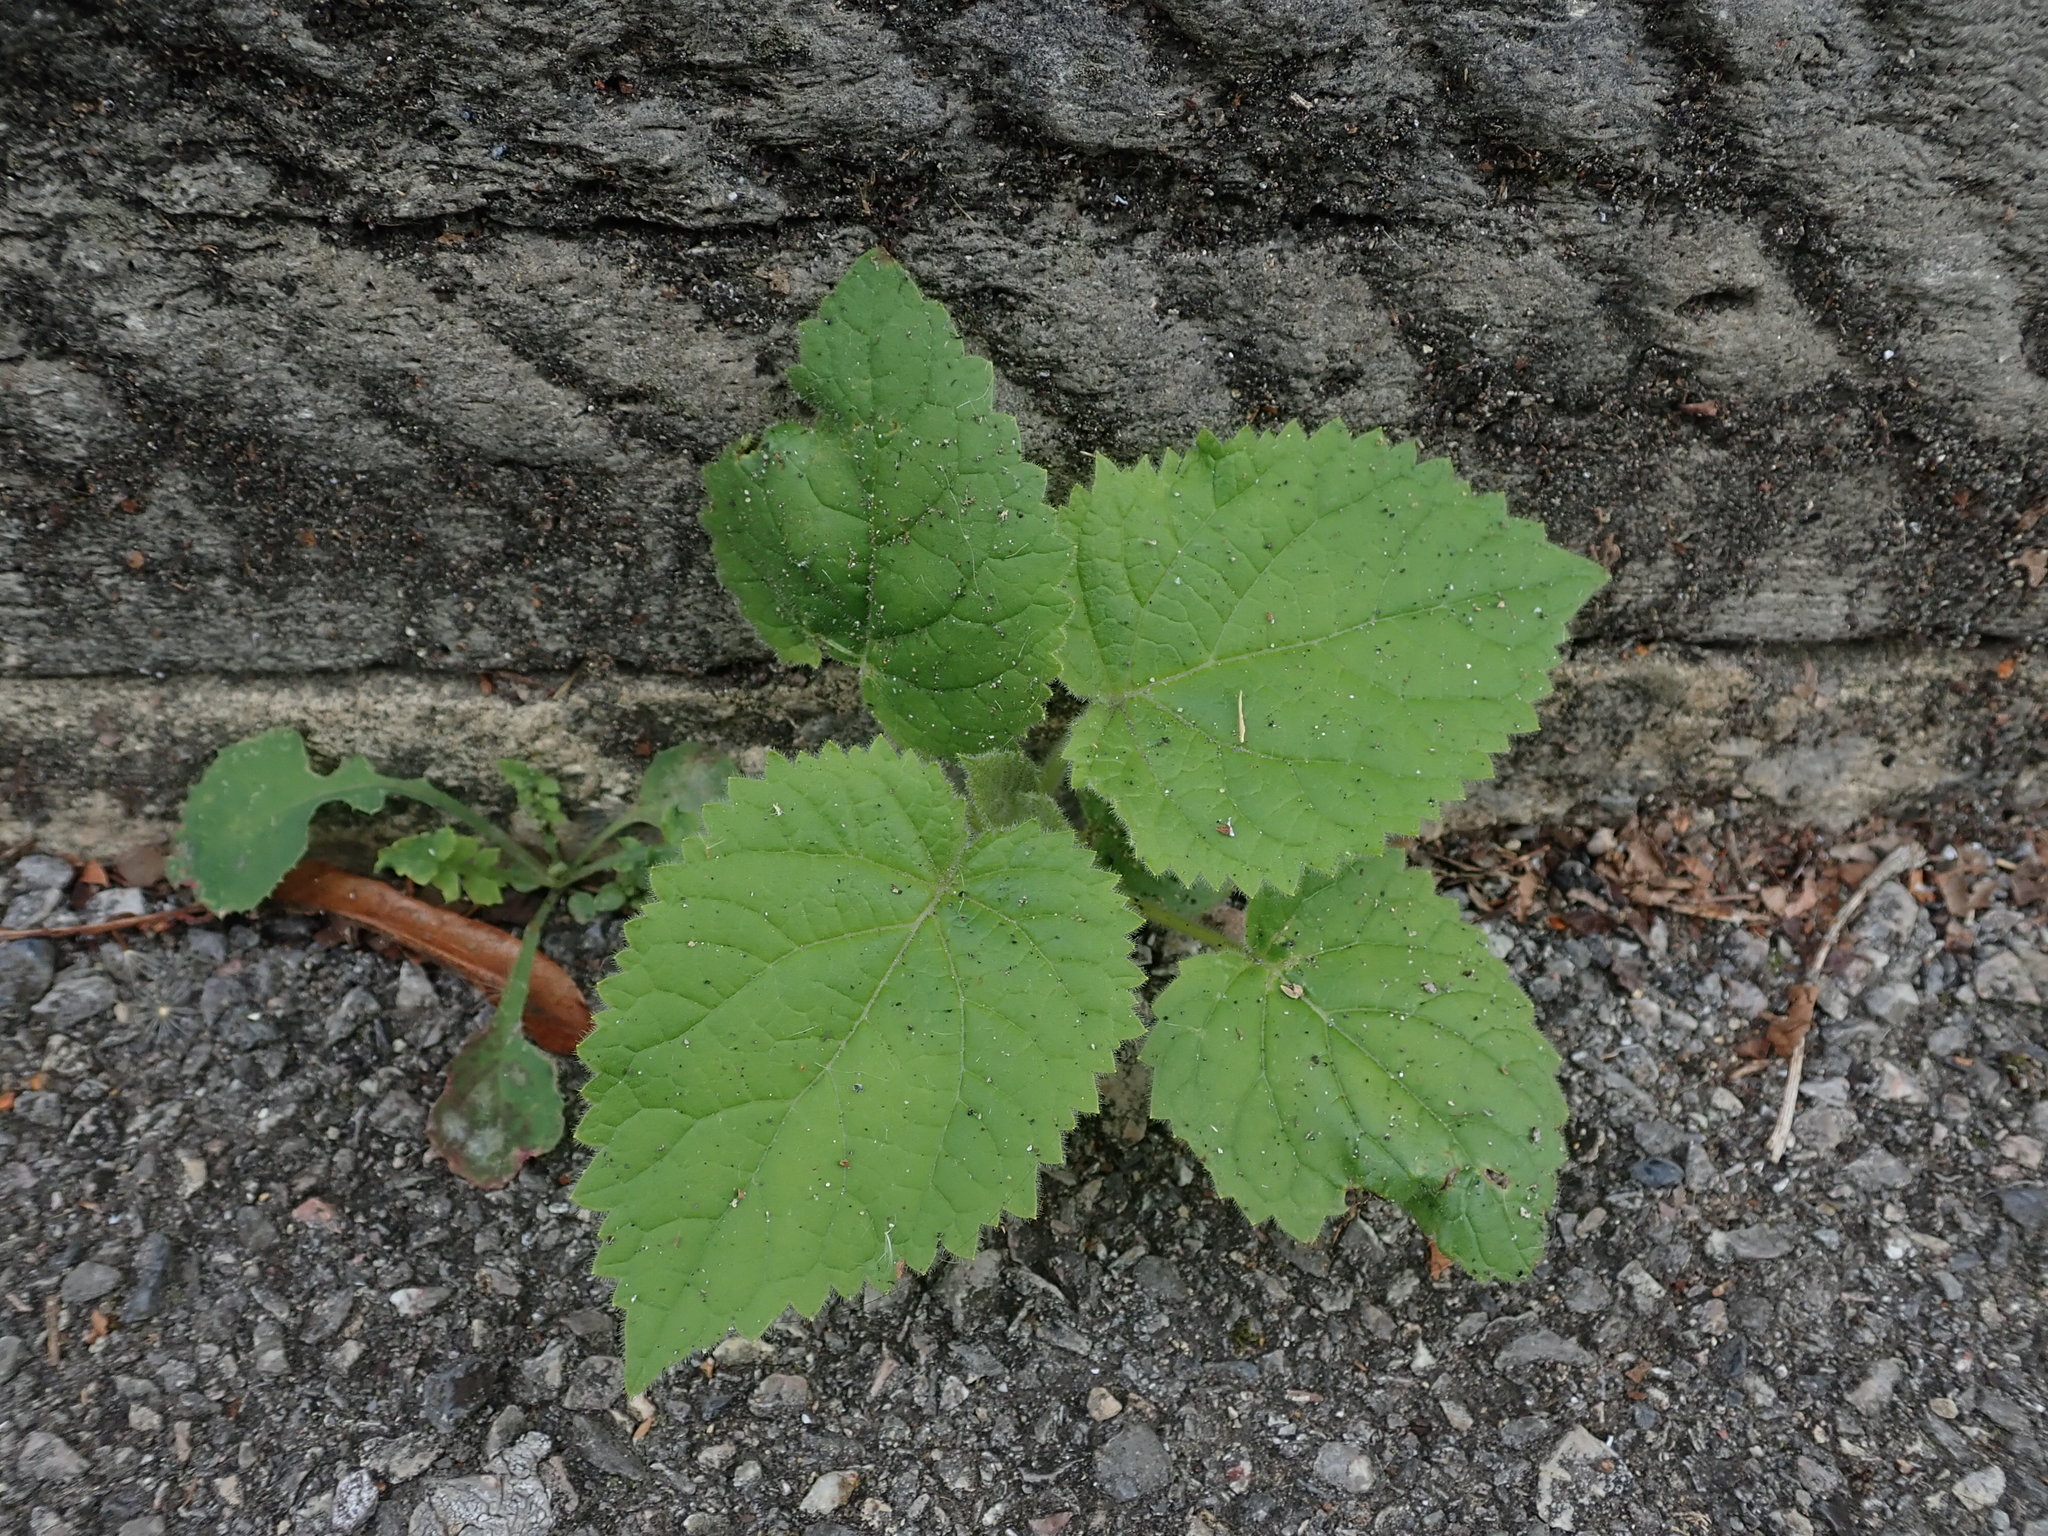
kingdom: Plantae
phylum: Tracheophyta
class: Magnoliopsida
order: Lamiales
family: Paulowniaceae
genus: Paulownia
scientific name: Paulownia tomentosa
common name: Foxglove-tree
